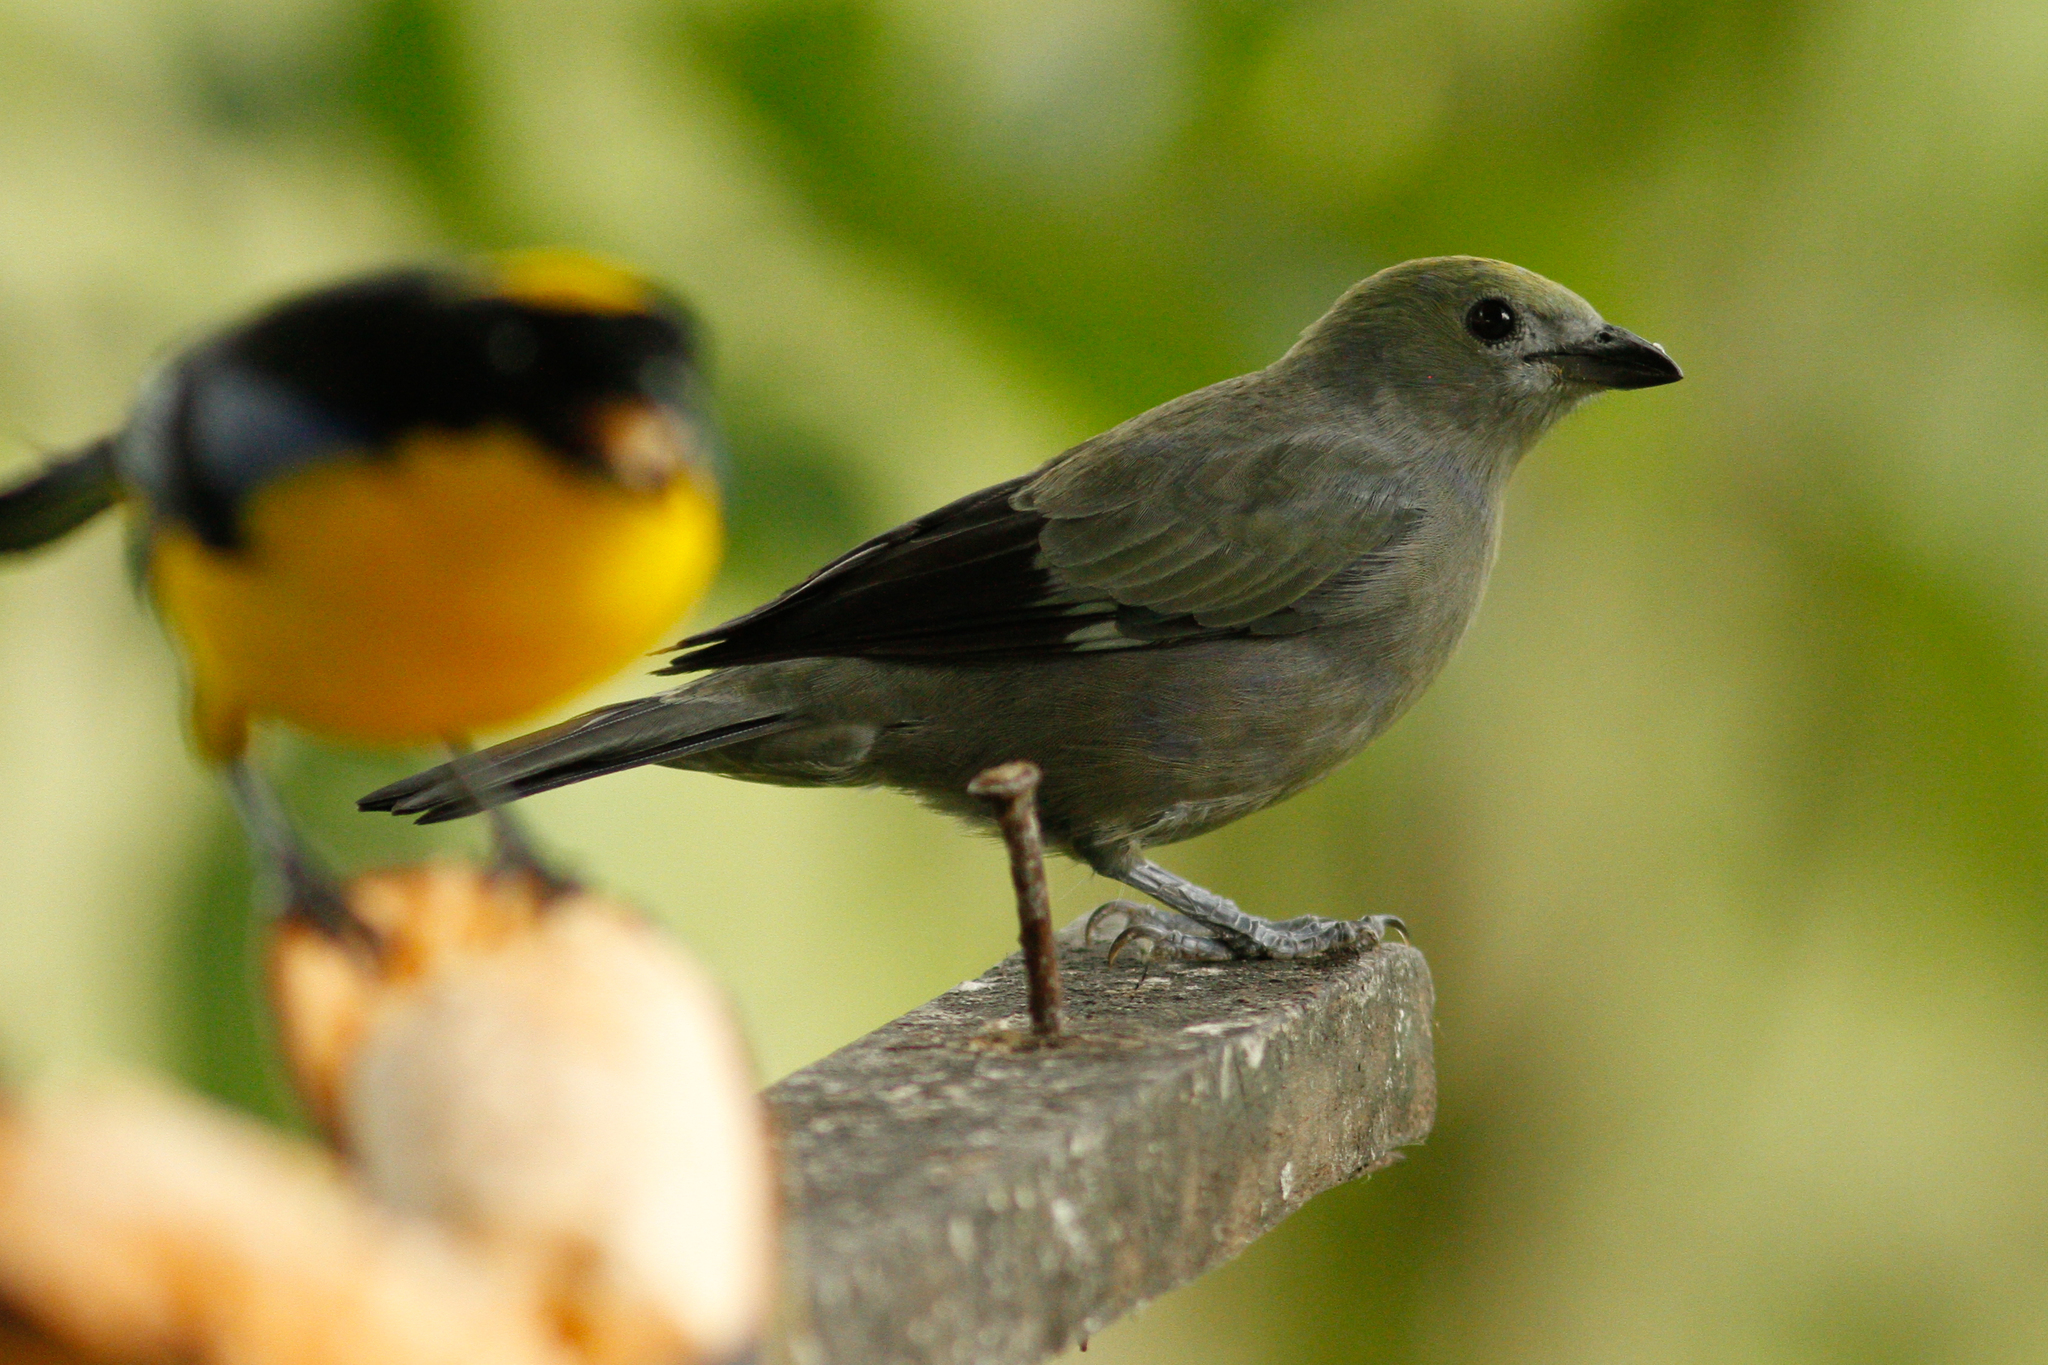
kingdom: Animalia
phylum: Chordata
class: Aves
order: Passeriformes
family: Thraupidae
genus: Thraupis
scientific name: Thraupis palmarum
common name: Palm tanager
